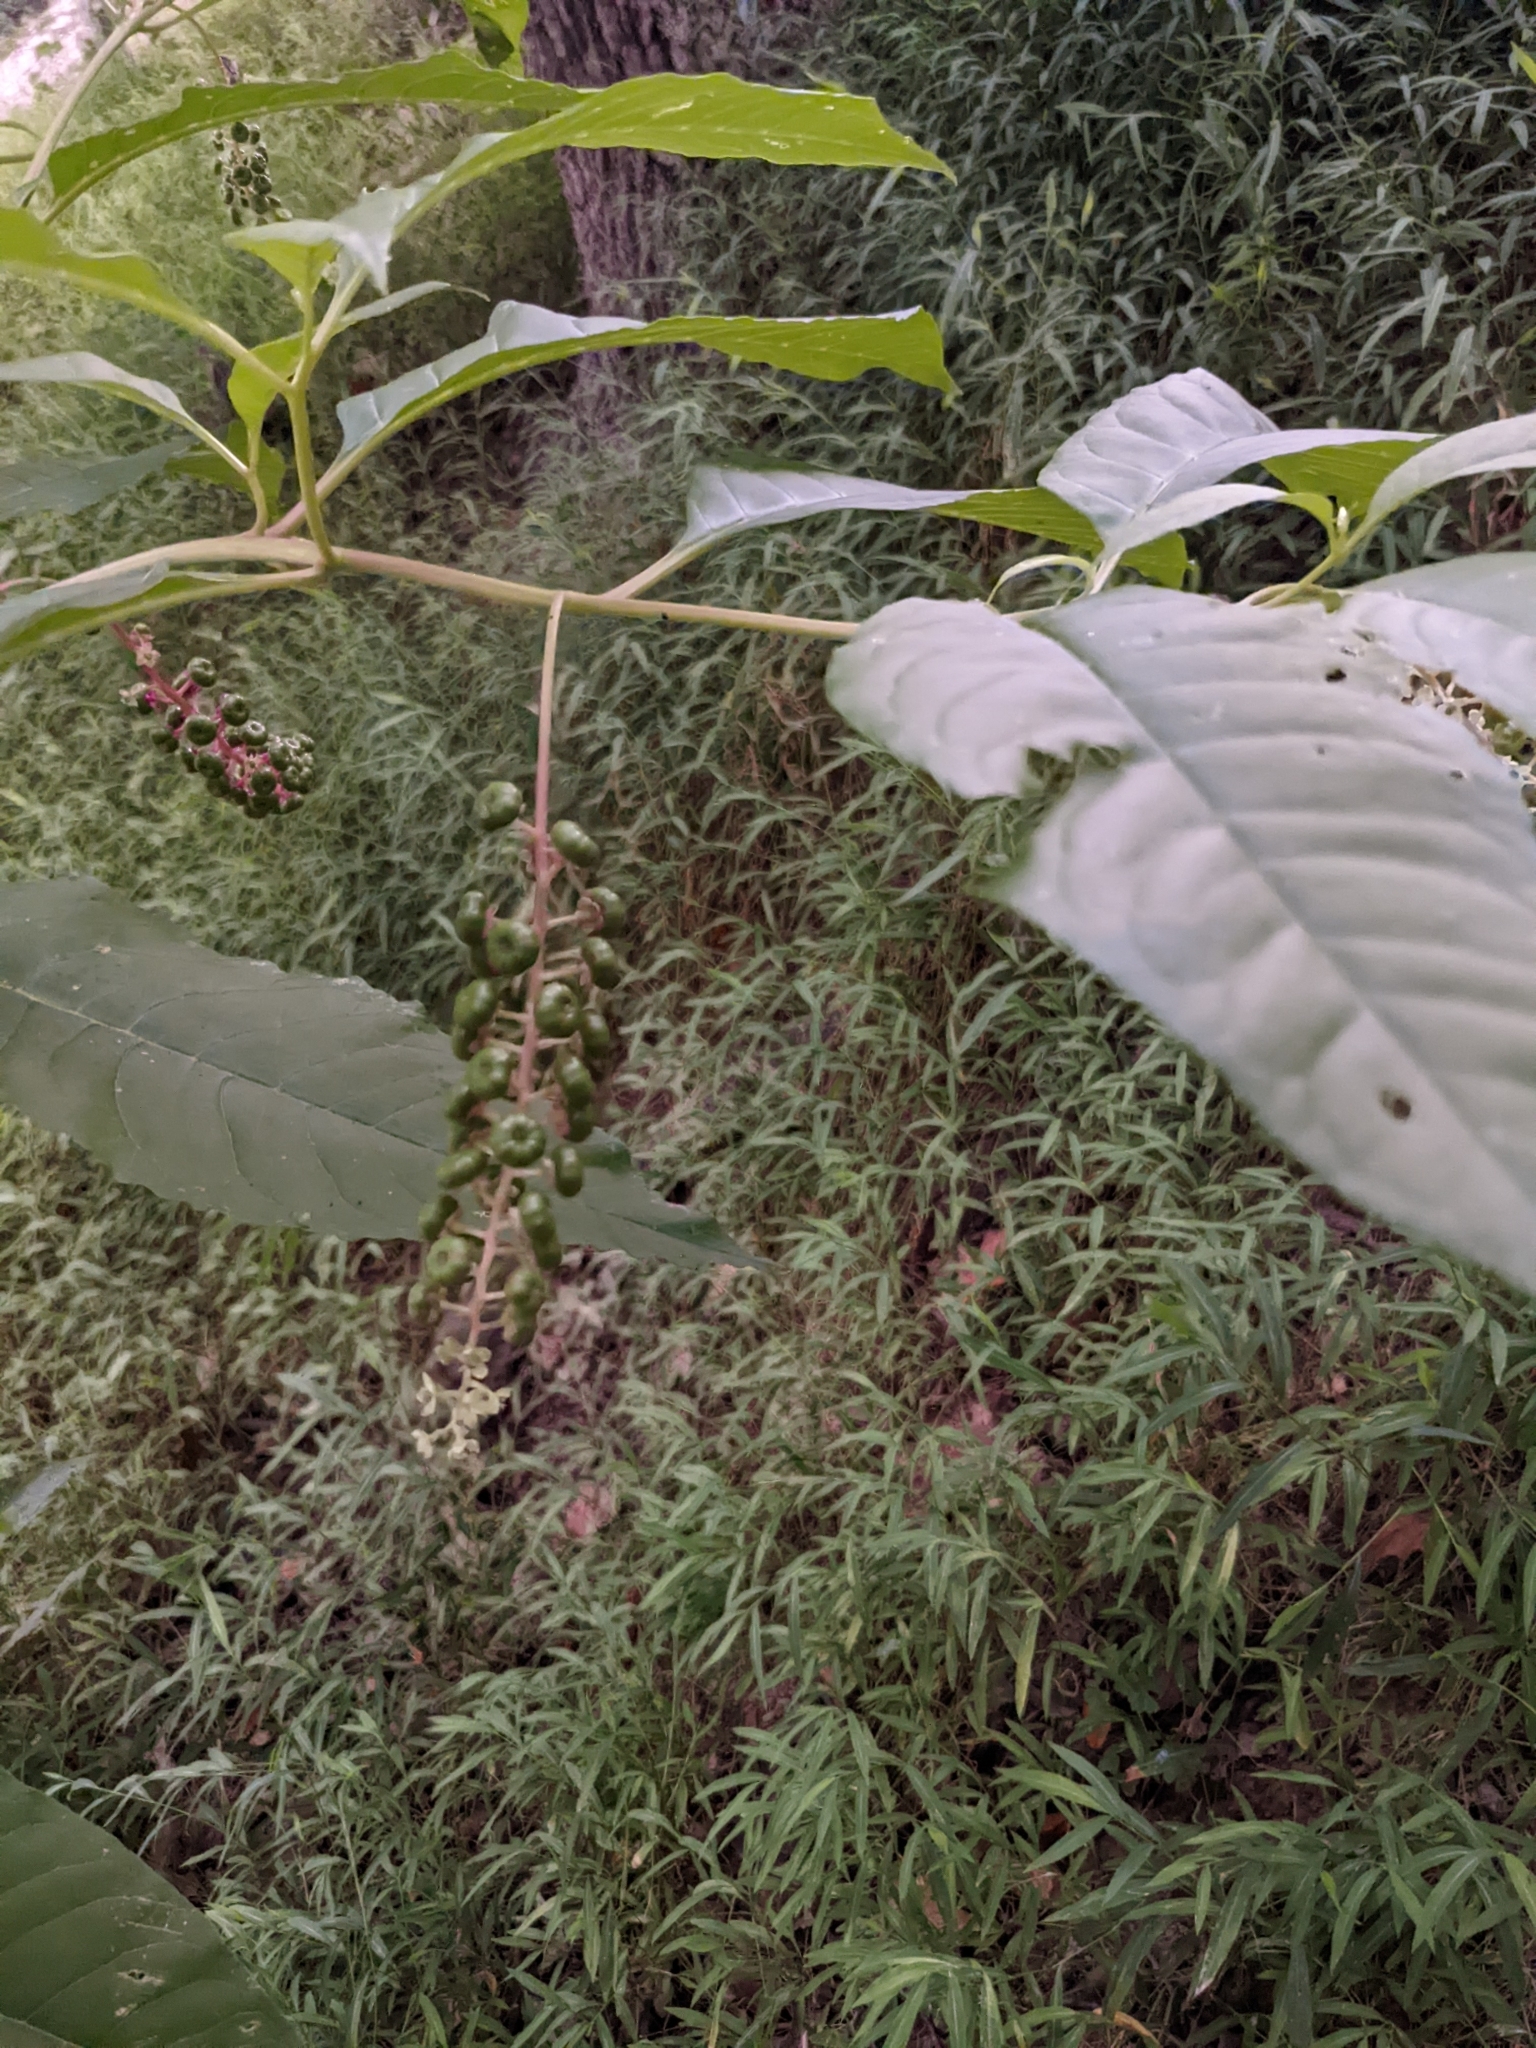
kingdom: Plantae
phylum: Tracheophyta
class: Magnoliopsida
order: Caryophyllales
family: Phytolaccaceae
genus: Phytolacca
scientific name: Phytolacca americana
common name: American pokeweed
